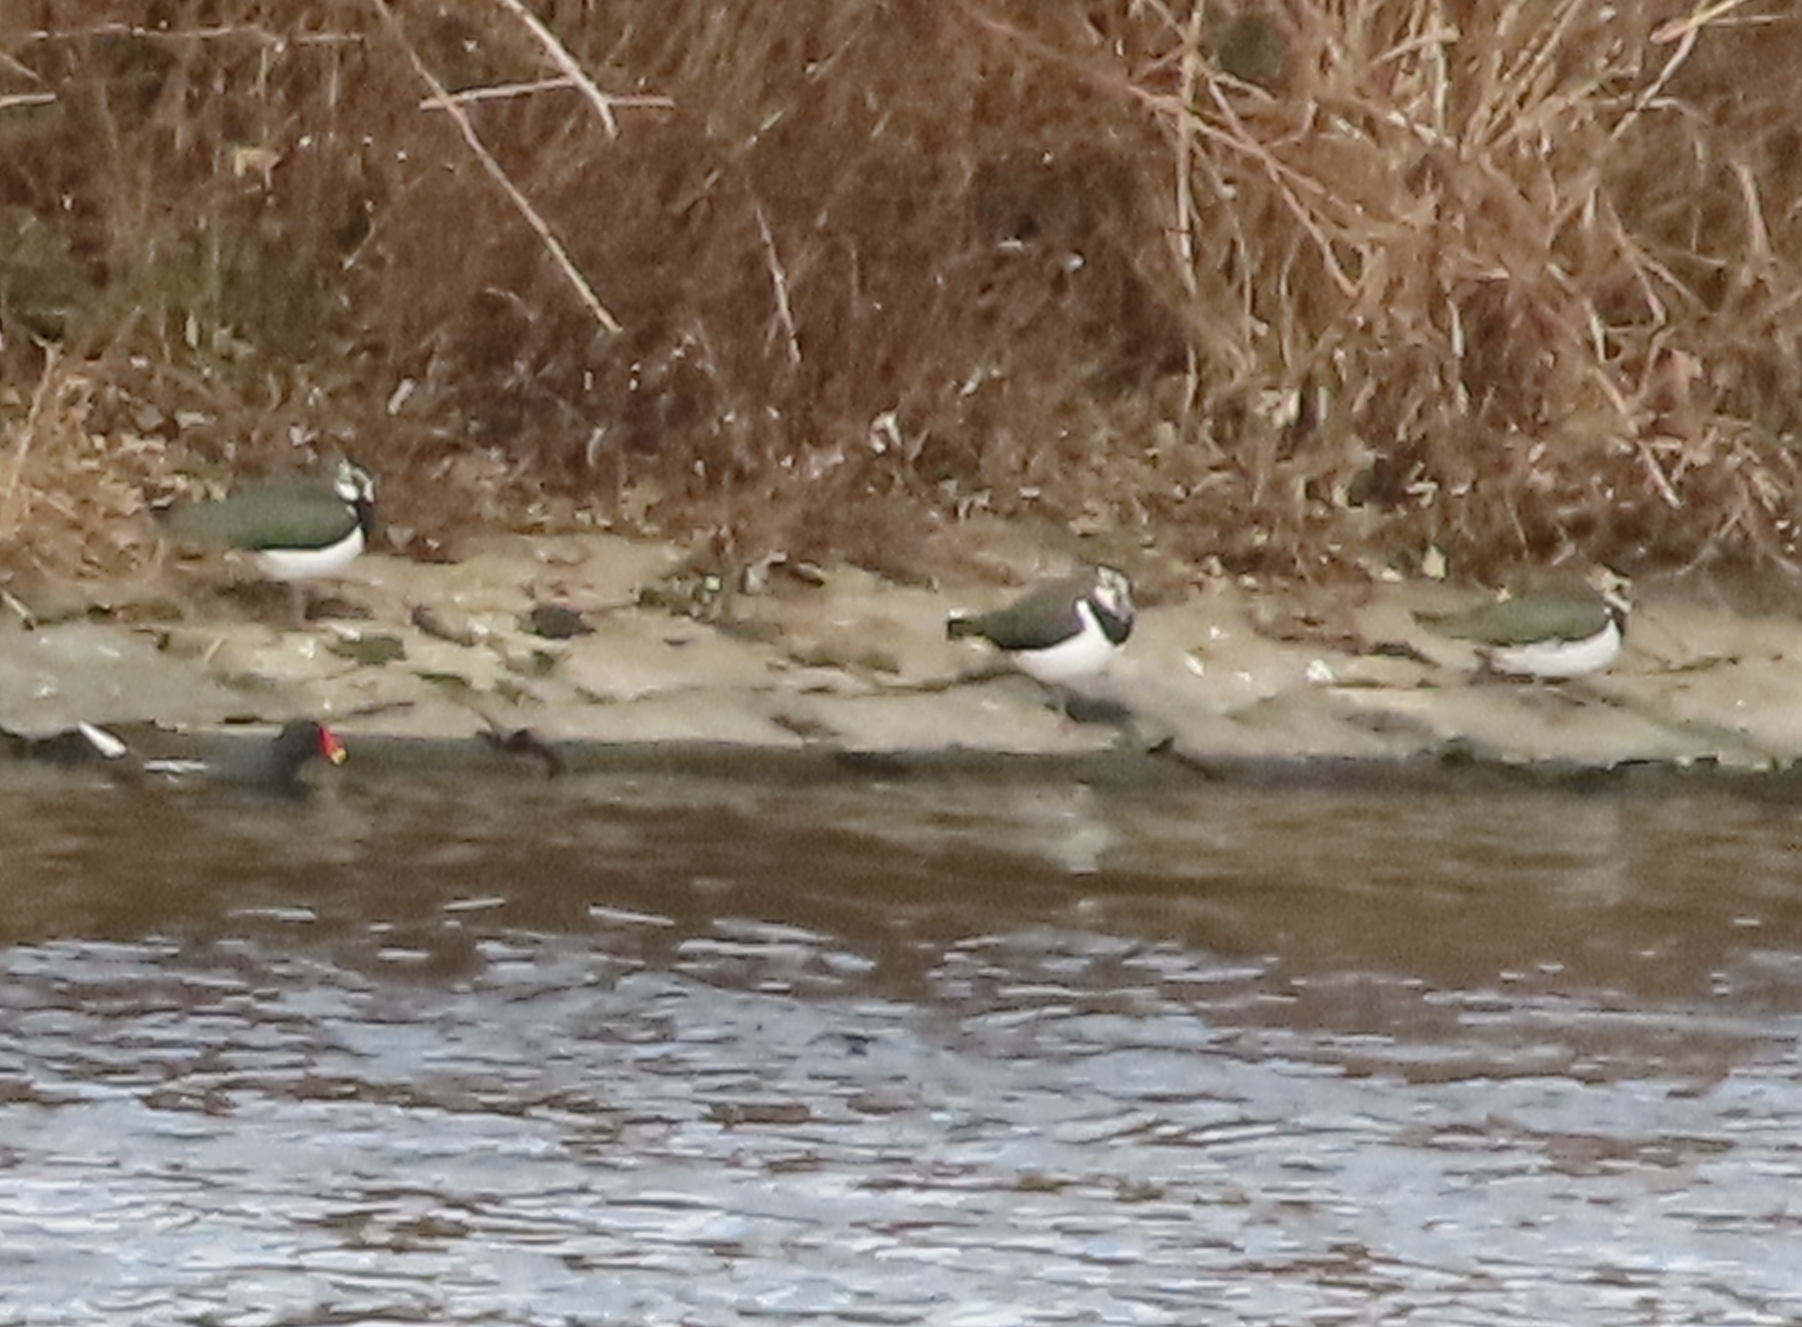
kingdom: Animalia
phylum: Chordata
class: Aves
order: Charadriiformes
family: Charadriidae
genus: Vanellus
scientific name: Vanellus vanellus
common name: Northern lapwing
